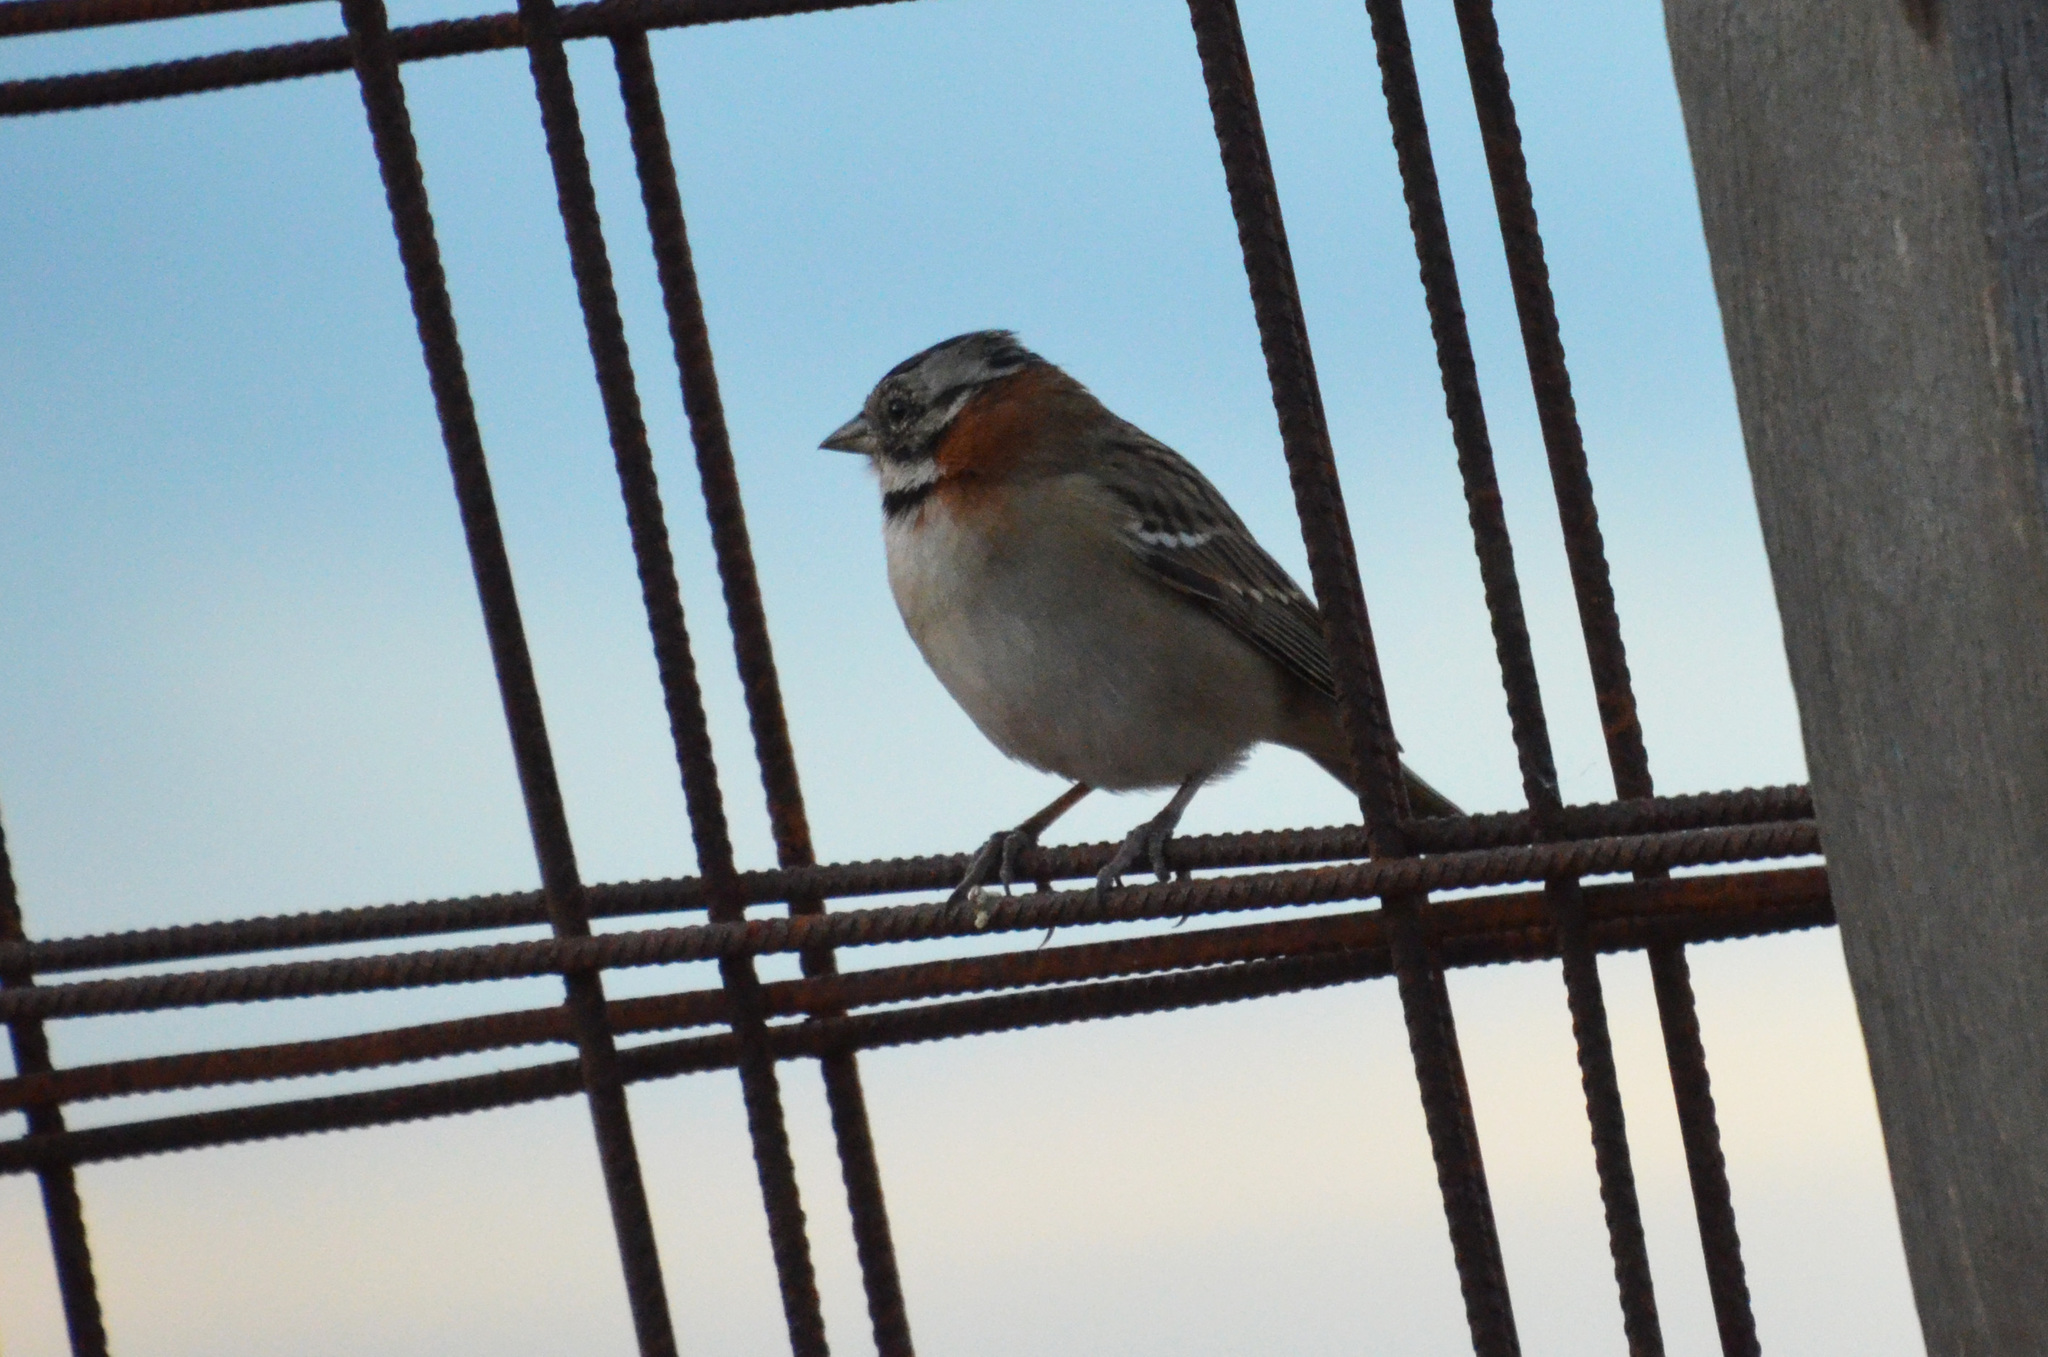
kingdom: Animalia
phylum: Chordata
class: Aves
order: Passeriformes
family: Passerellidae
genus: Zonotrichia
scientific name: Zonotrichia capensis
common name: Rufous-collared sparrow
